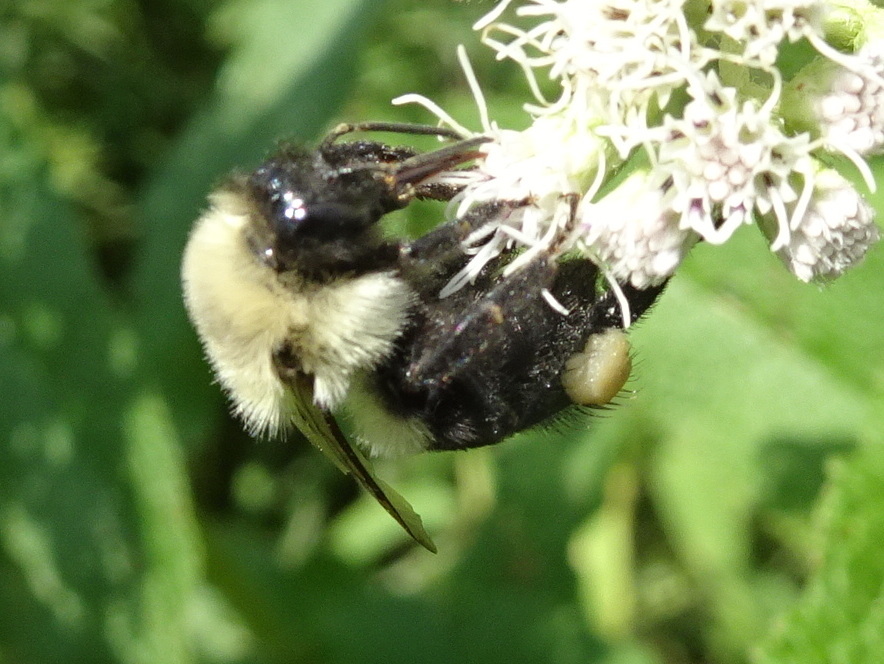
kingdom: Animalia
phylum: Arthropoda
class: Insecta
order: Hymenoptera
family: Apidae
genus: Bombus
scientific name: Bombus impatiens
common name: Common eastern bumble bee
